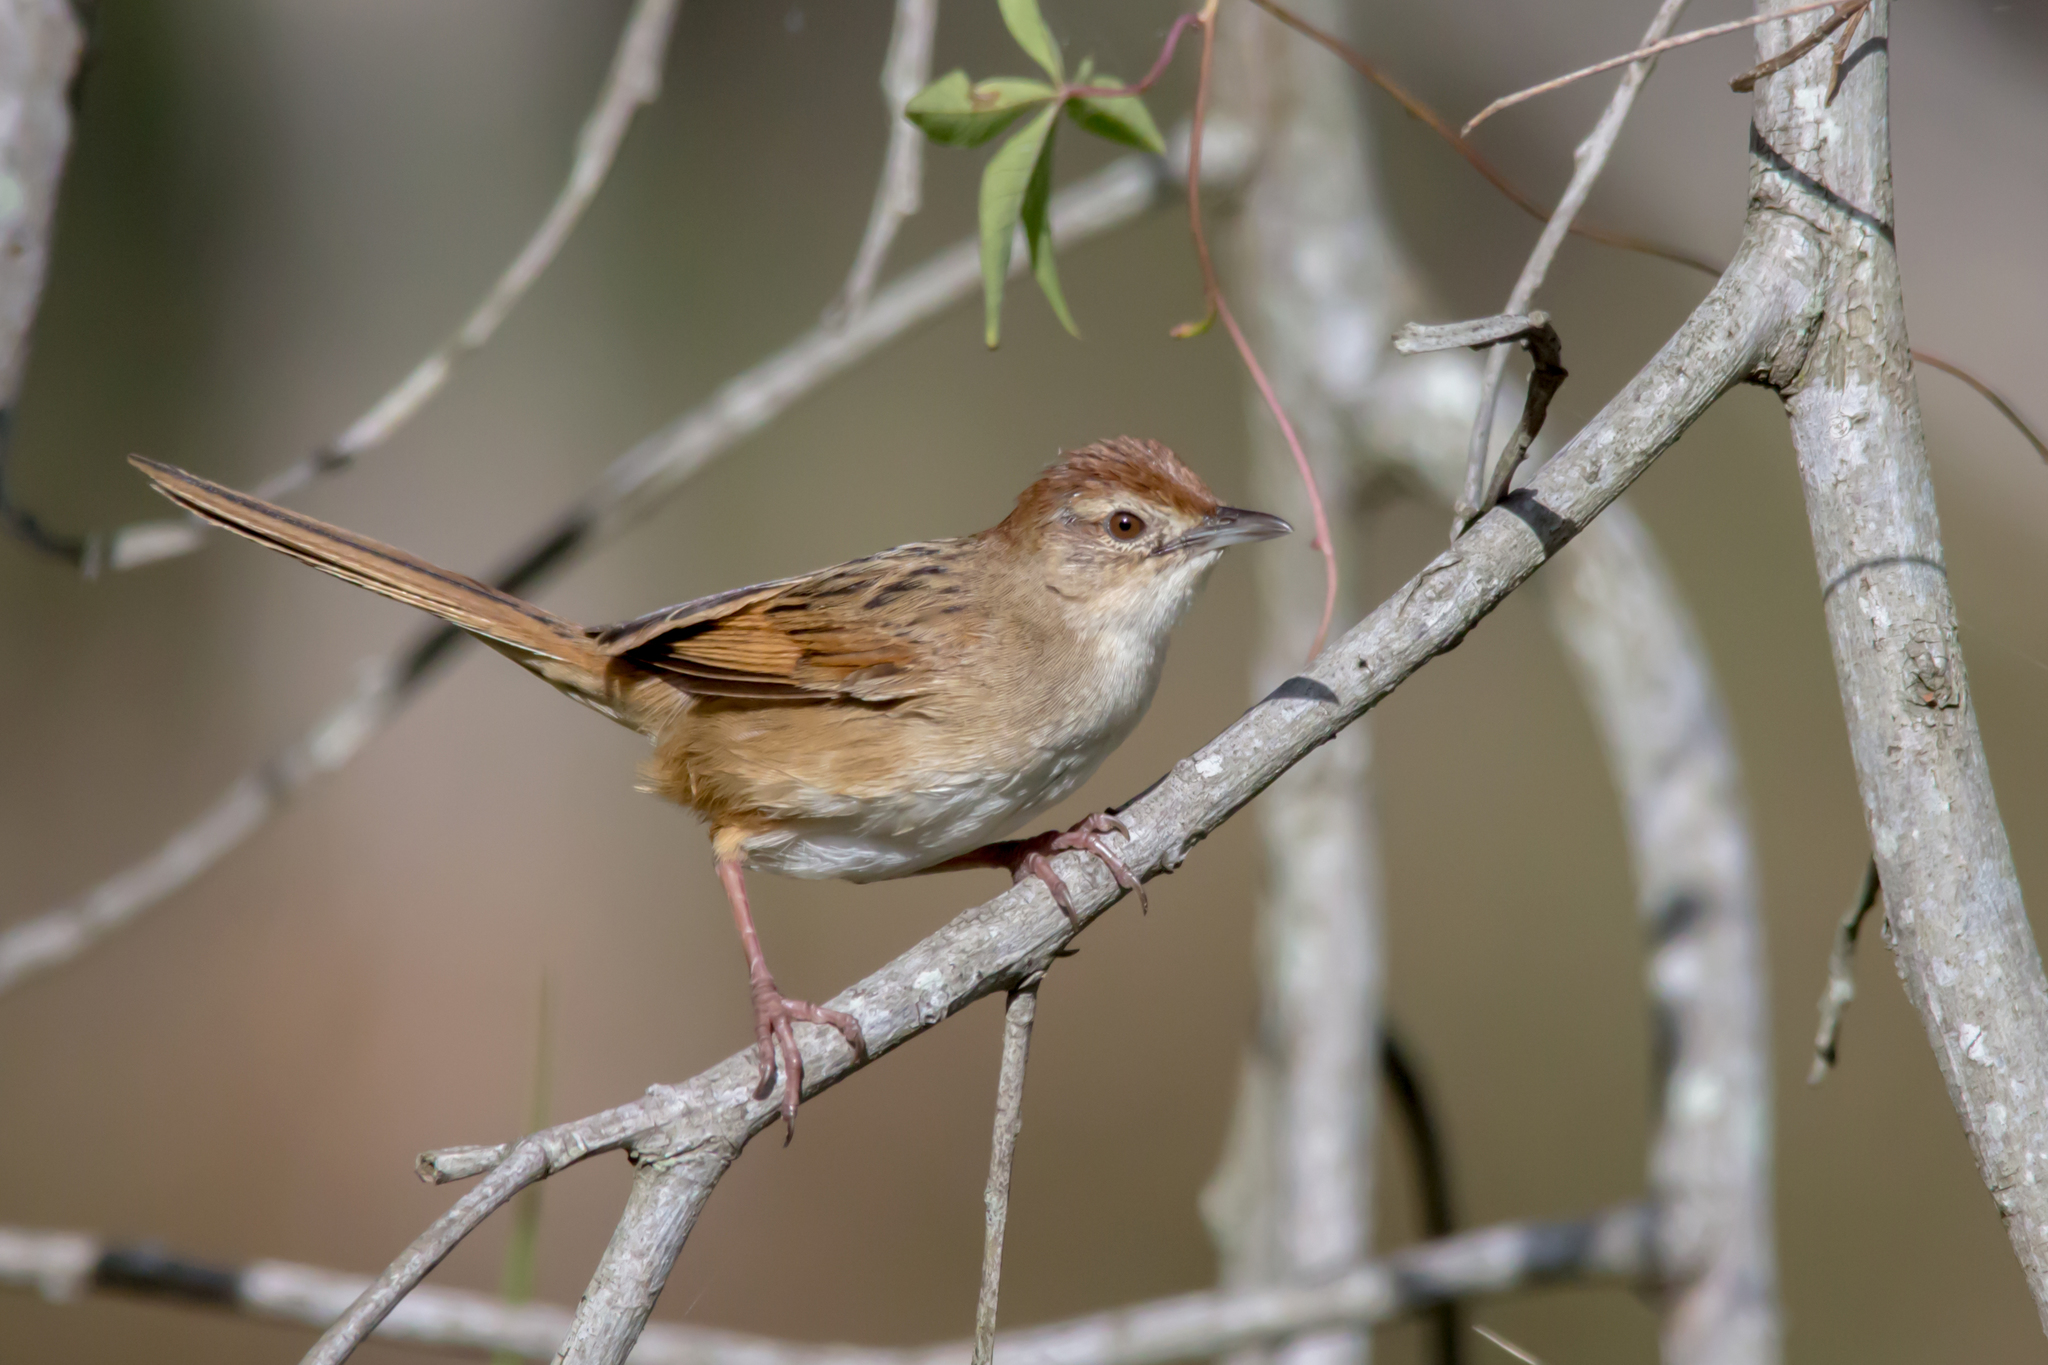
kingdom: Animalia
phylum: Chordata
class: Aves
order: Passeriformes
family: Locustellidae
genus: Megalurus
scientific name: Megalurus timoriensis
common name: Tawny grassbird
